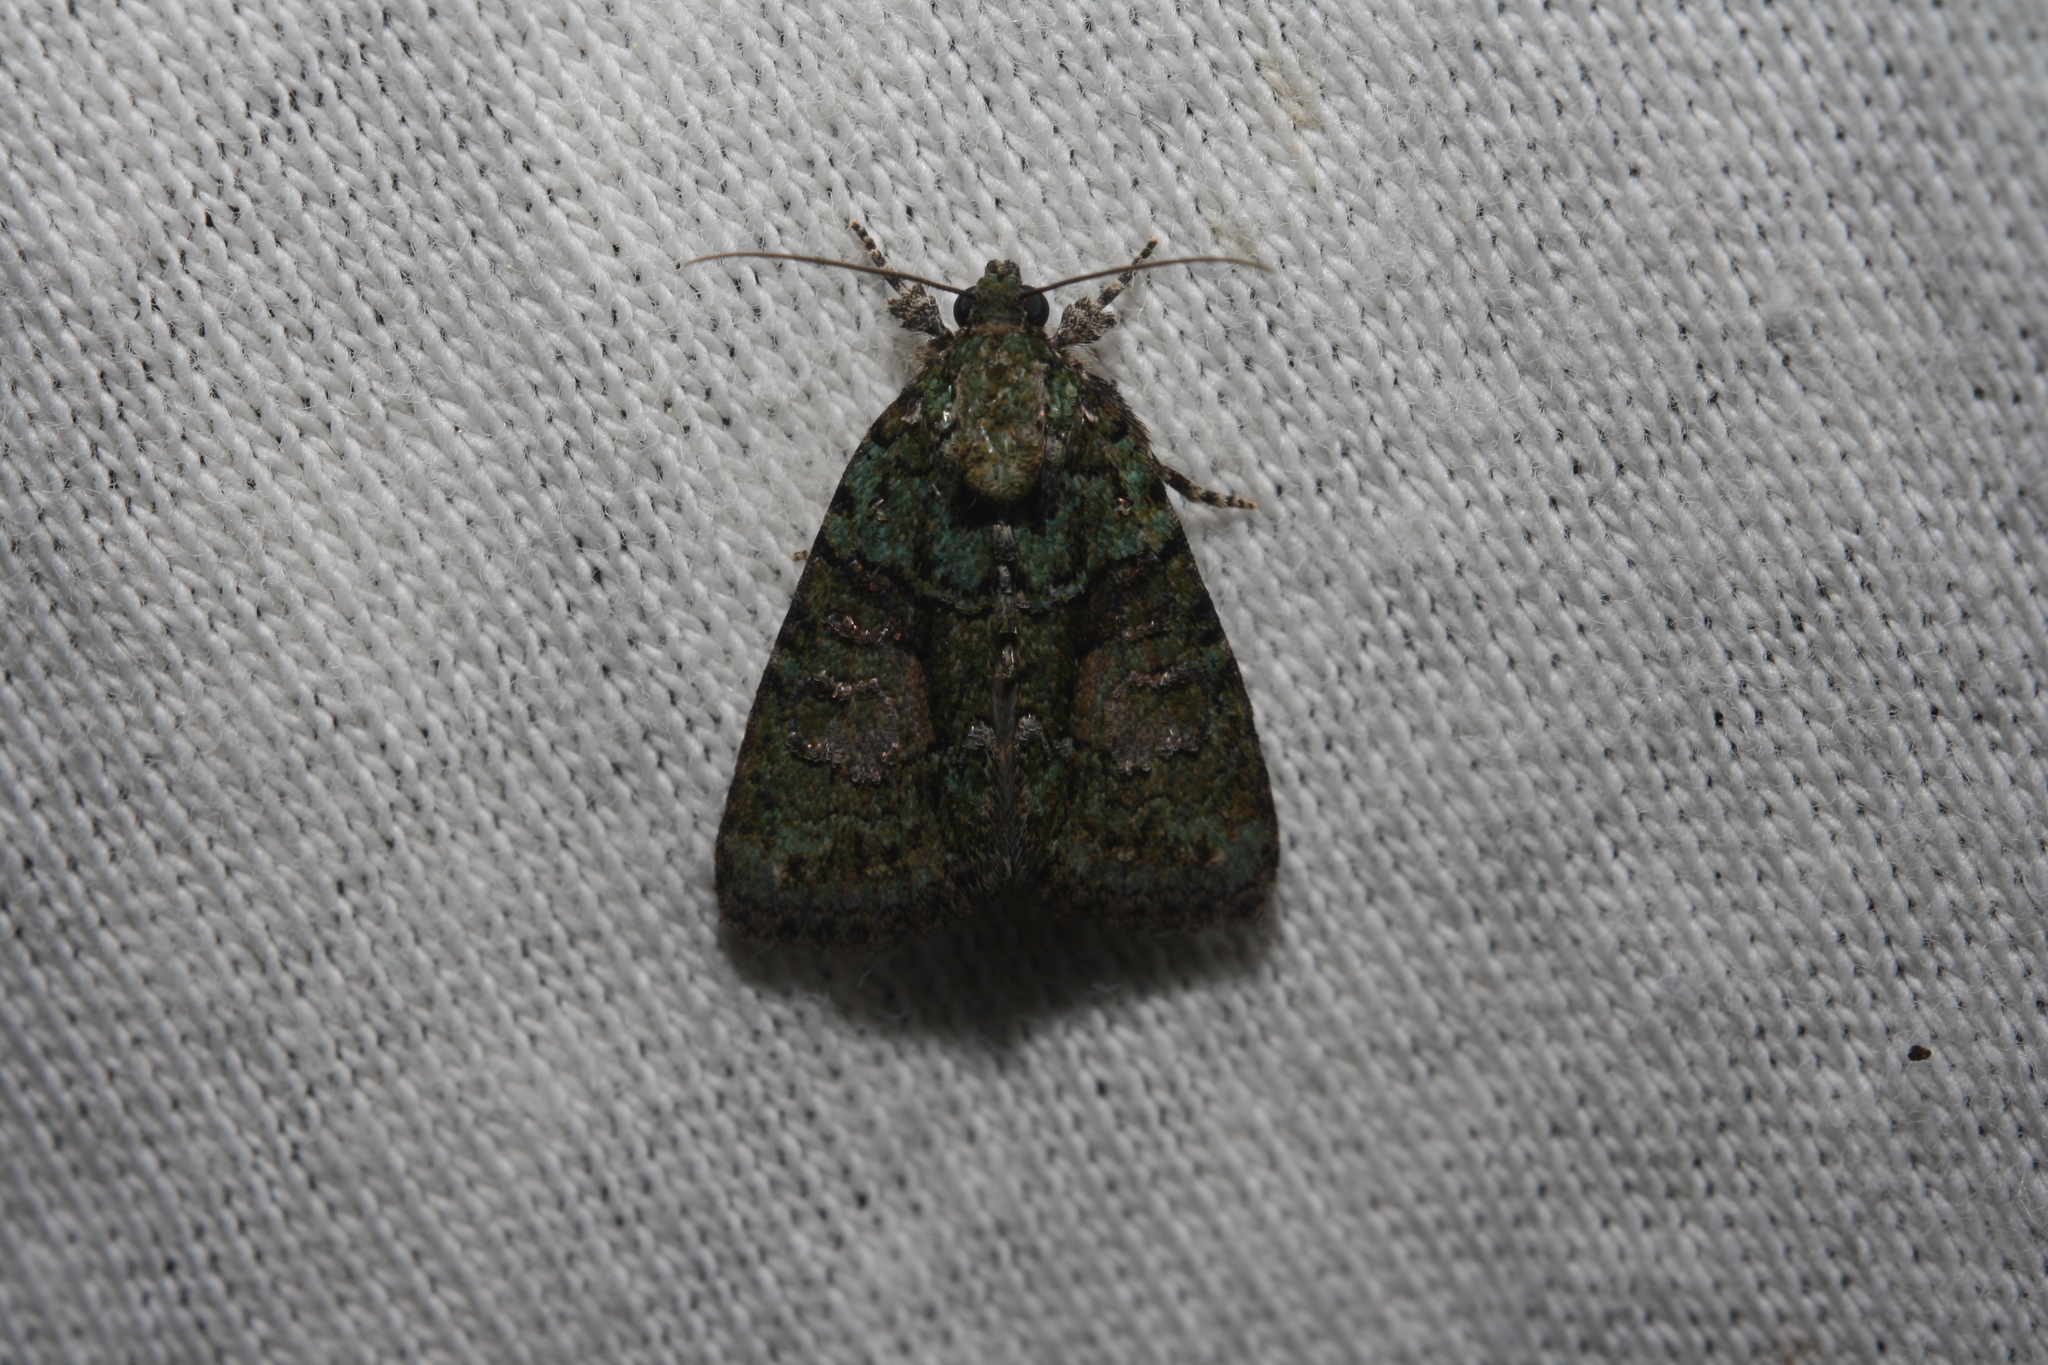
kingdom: Animalia
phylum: Arthropoda
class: Insecta
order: Lepidoptera
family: Noctuidae
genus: Cryphia
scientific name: Cryphia algae
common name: Tree-lichen beauty
